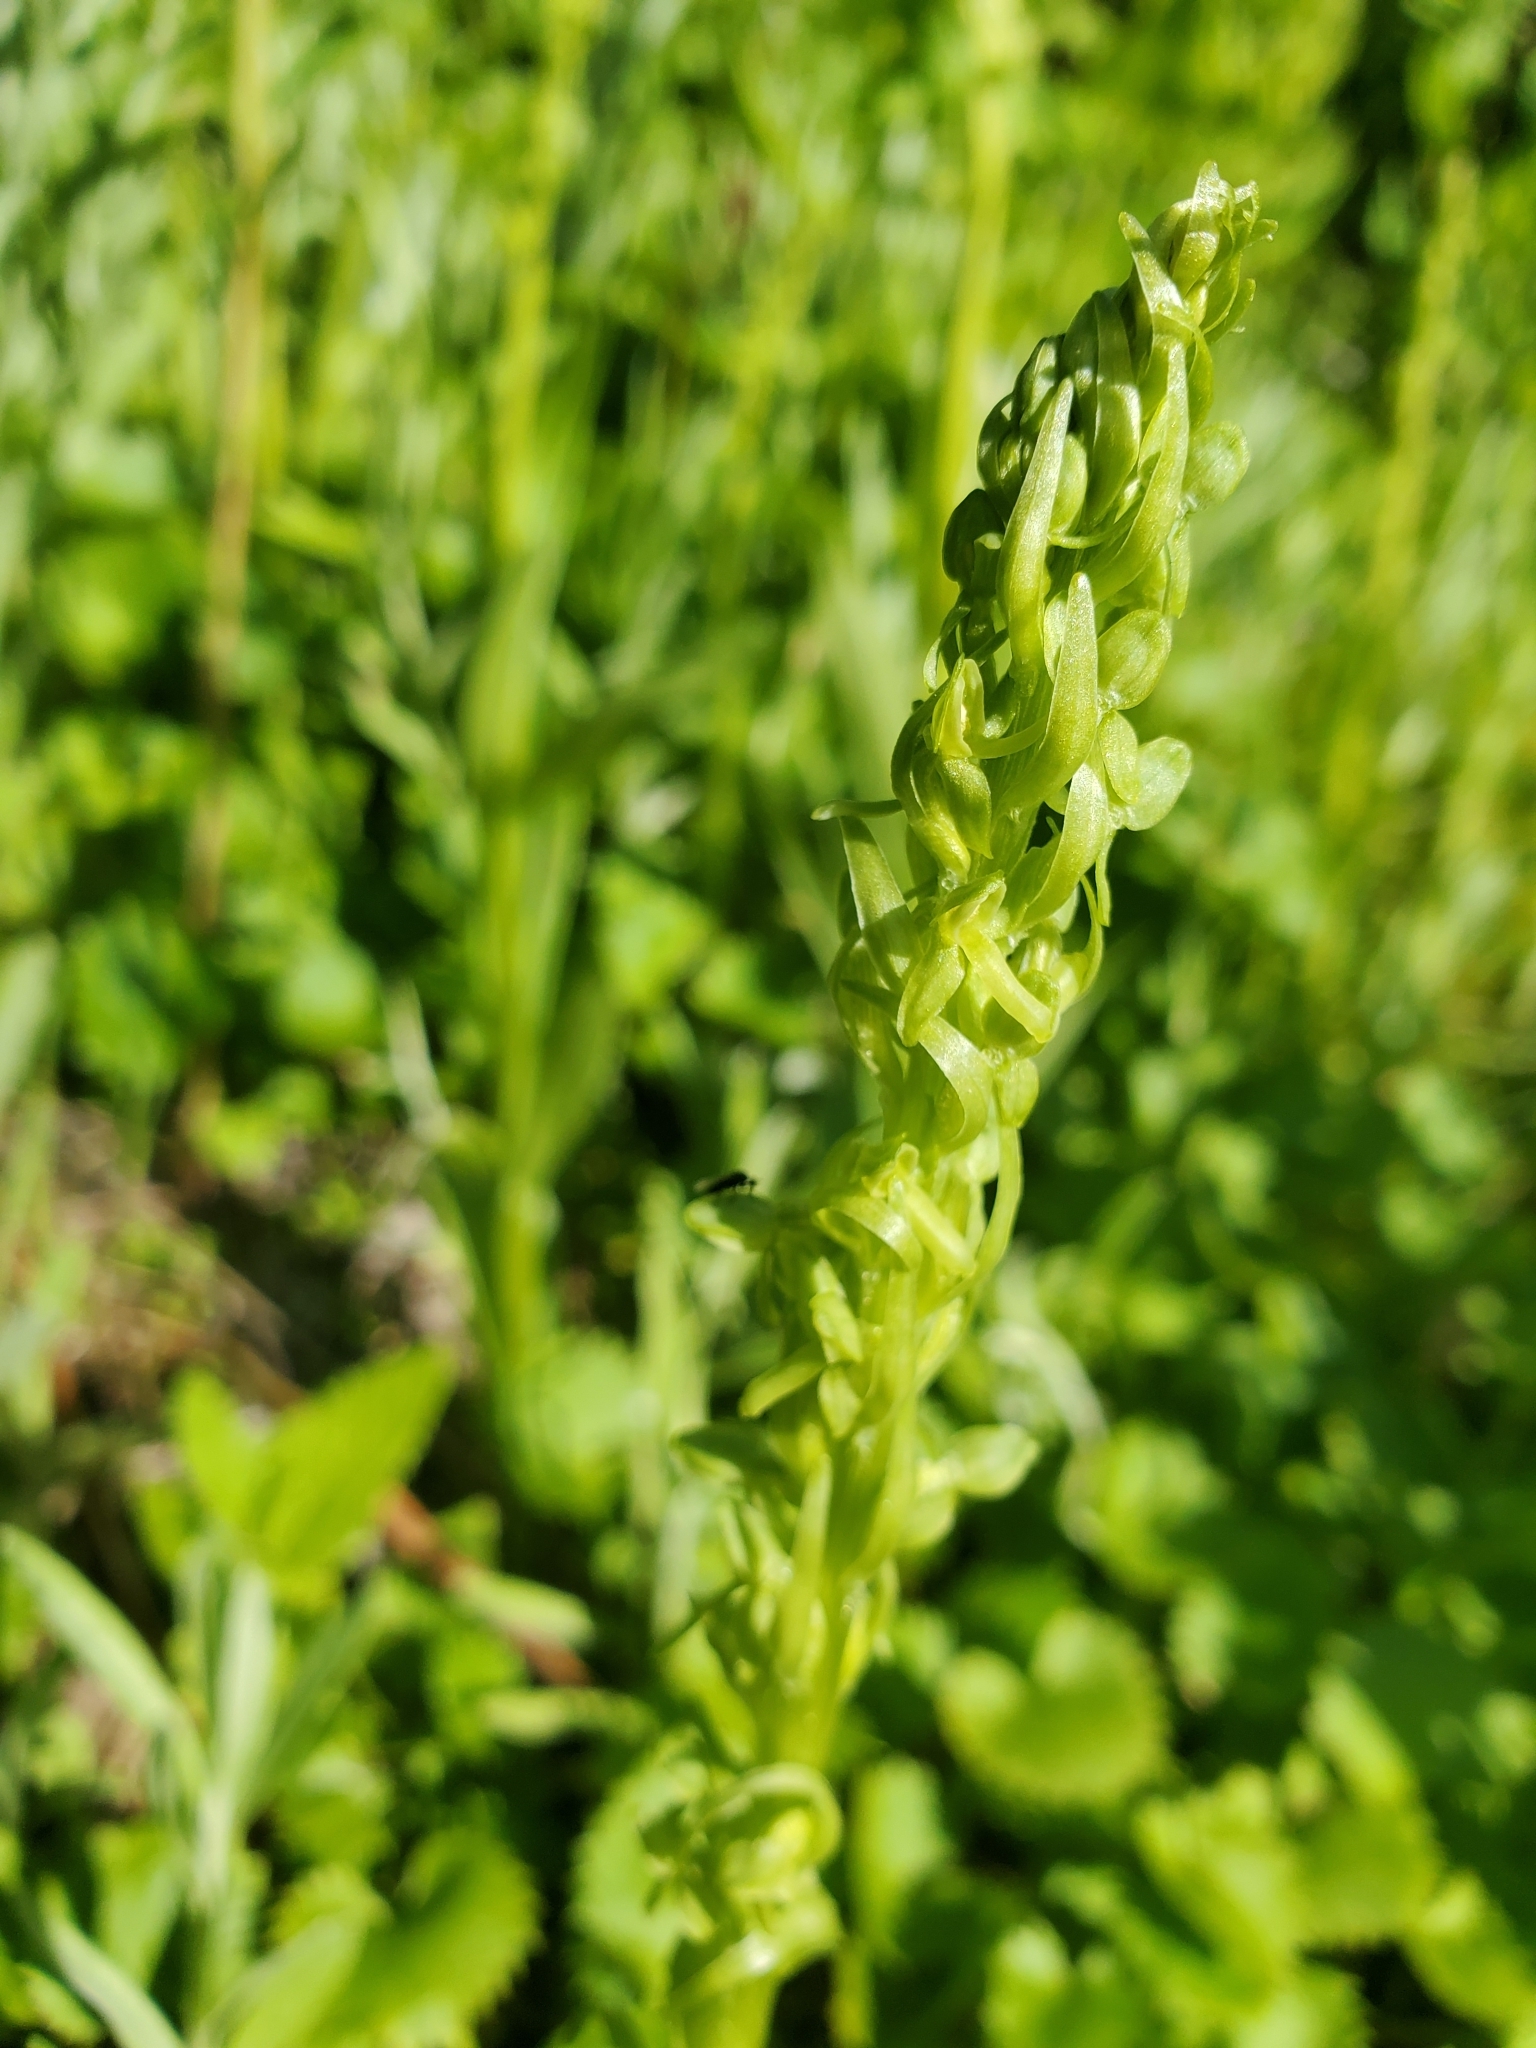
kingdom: Plantae
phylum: Tracheophyta
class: Liliopsida
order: Asparagales
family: Orchidaceae
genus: Platanthera
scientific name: Platanthera stricta
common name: Slender bog orchid
